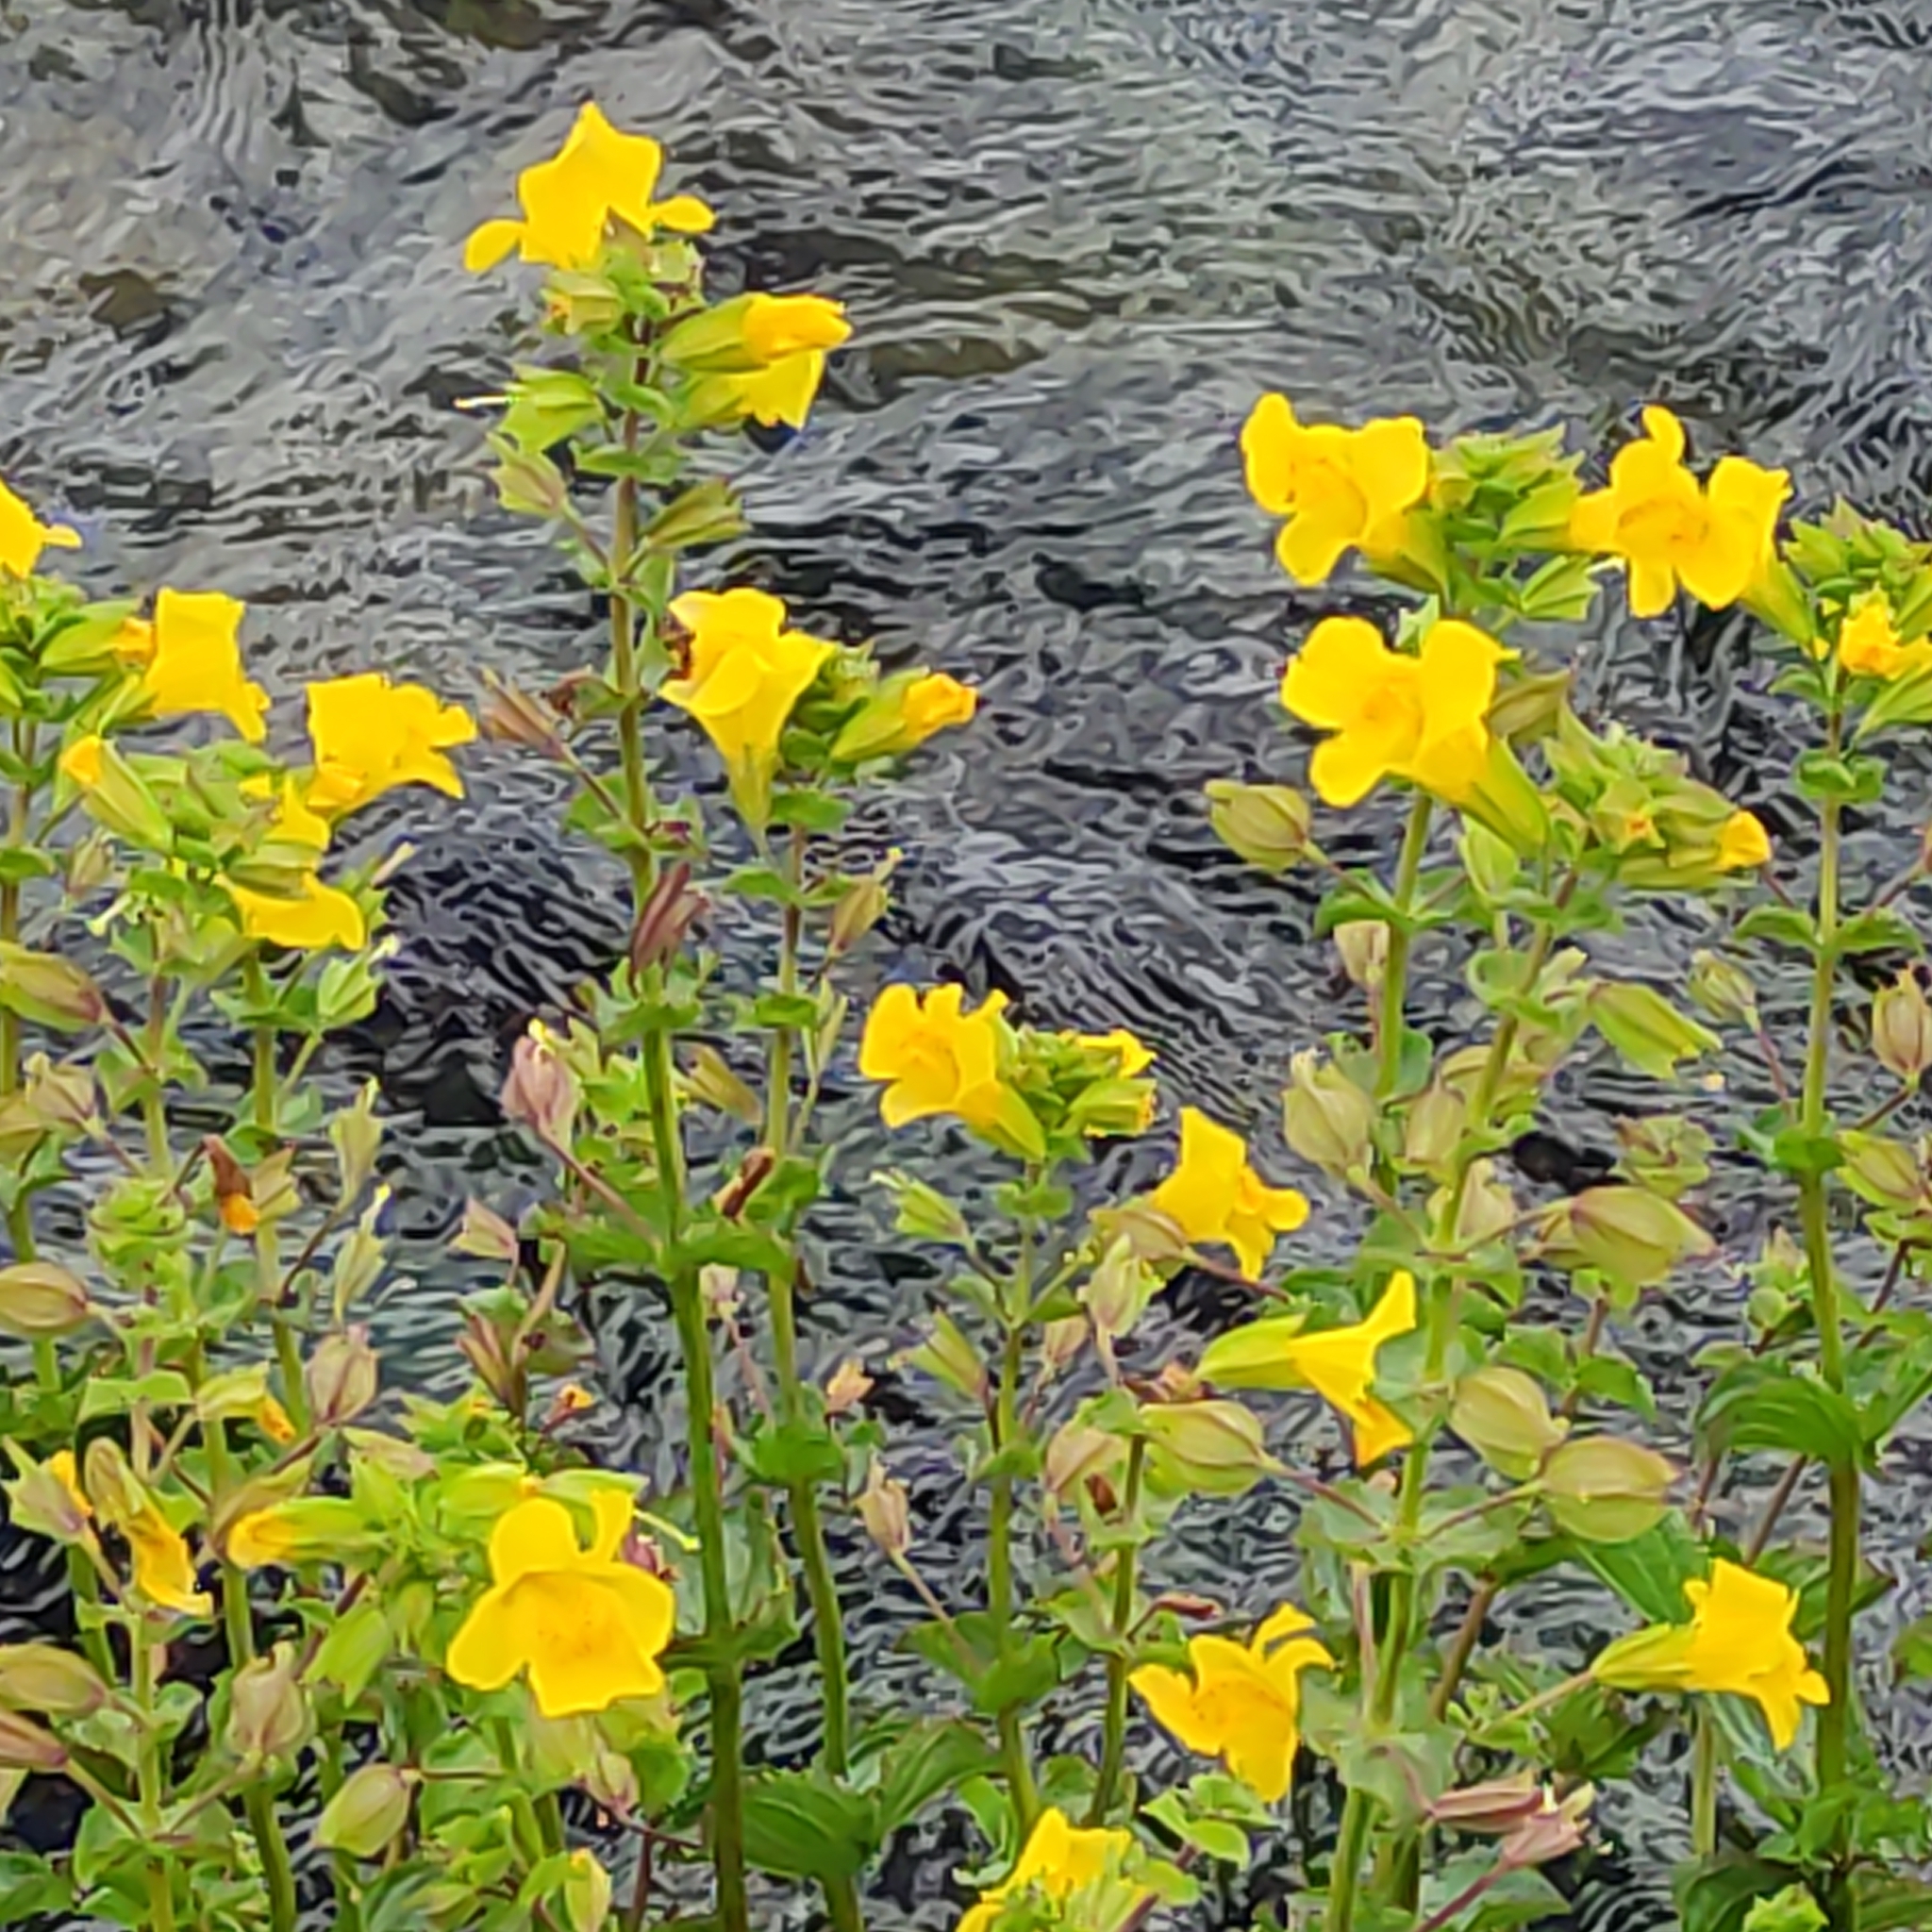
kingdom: Plantae
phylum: Tracheophyta
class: Magnoliopsida
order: Lamiales
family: Phrymaceae
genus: Erythranthe
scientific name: Erythranthe guttata
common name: Monkeyflower
